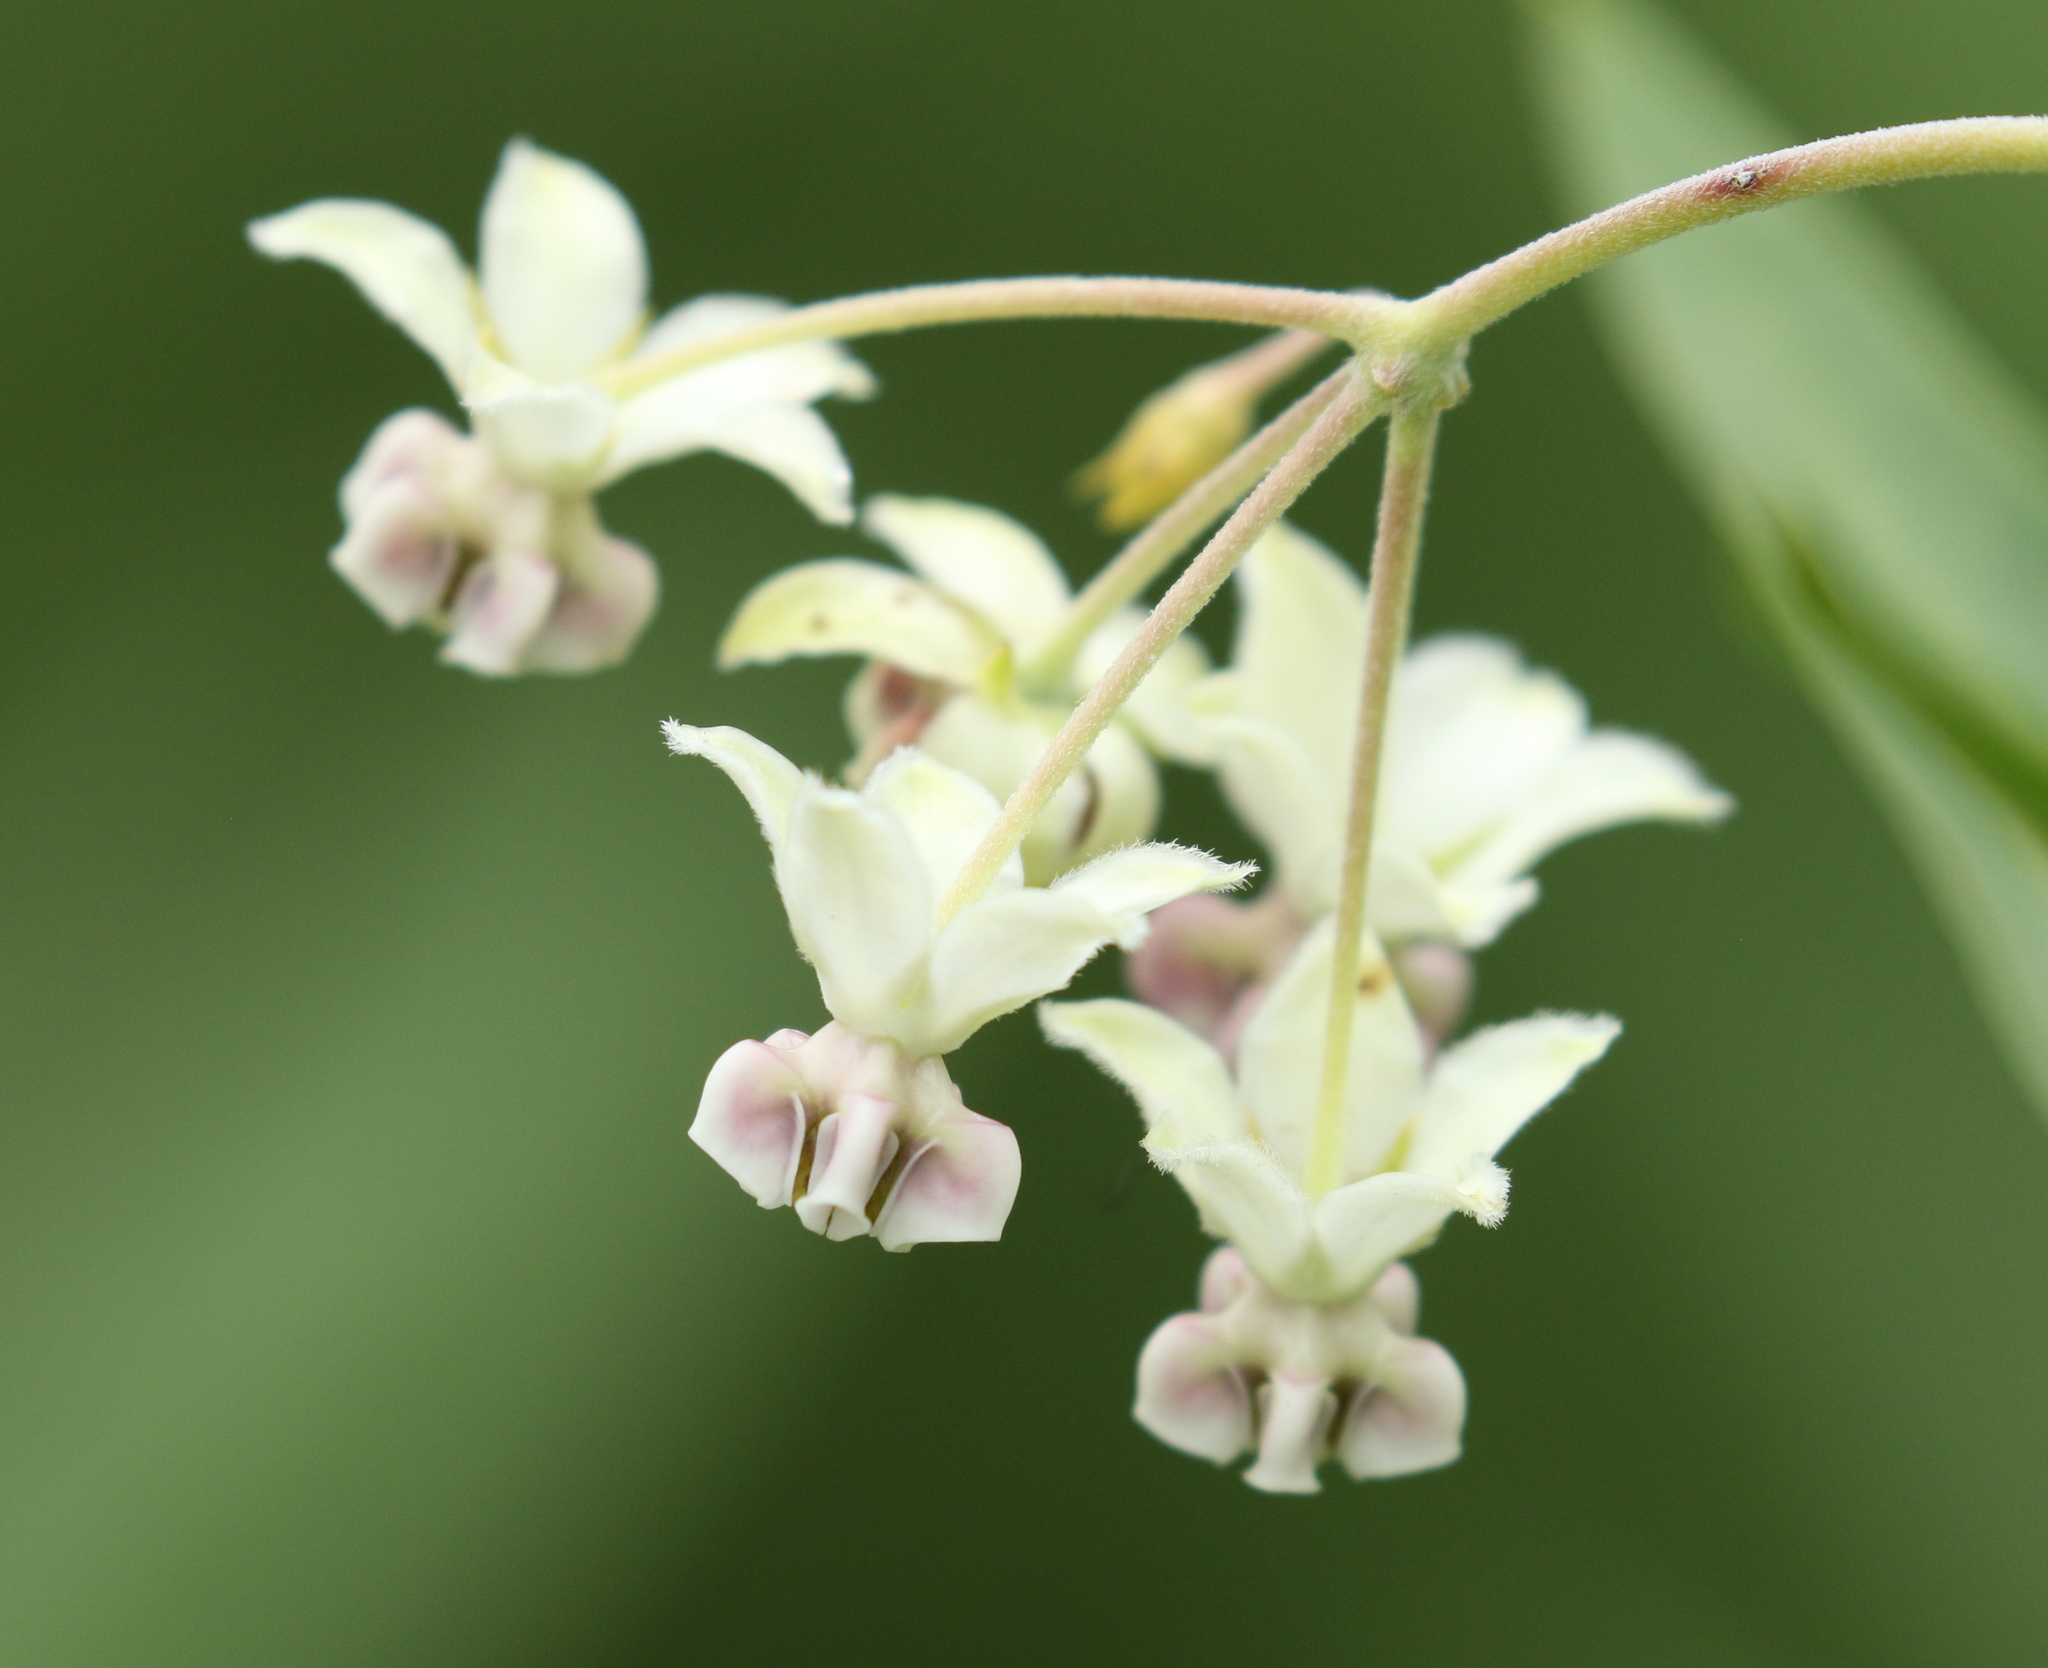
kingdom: Plantae
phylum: Tracheophyta
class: Magnoliopsida
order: Gentianales
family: Apocynaceae
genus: Gomphocarpus
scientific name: Gomphocarpus physocarpus
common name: Balloon cotton bush
